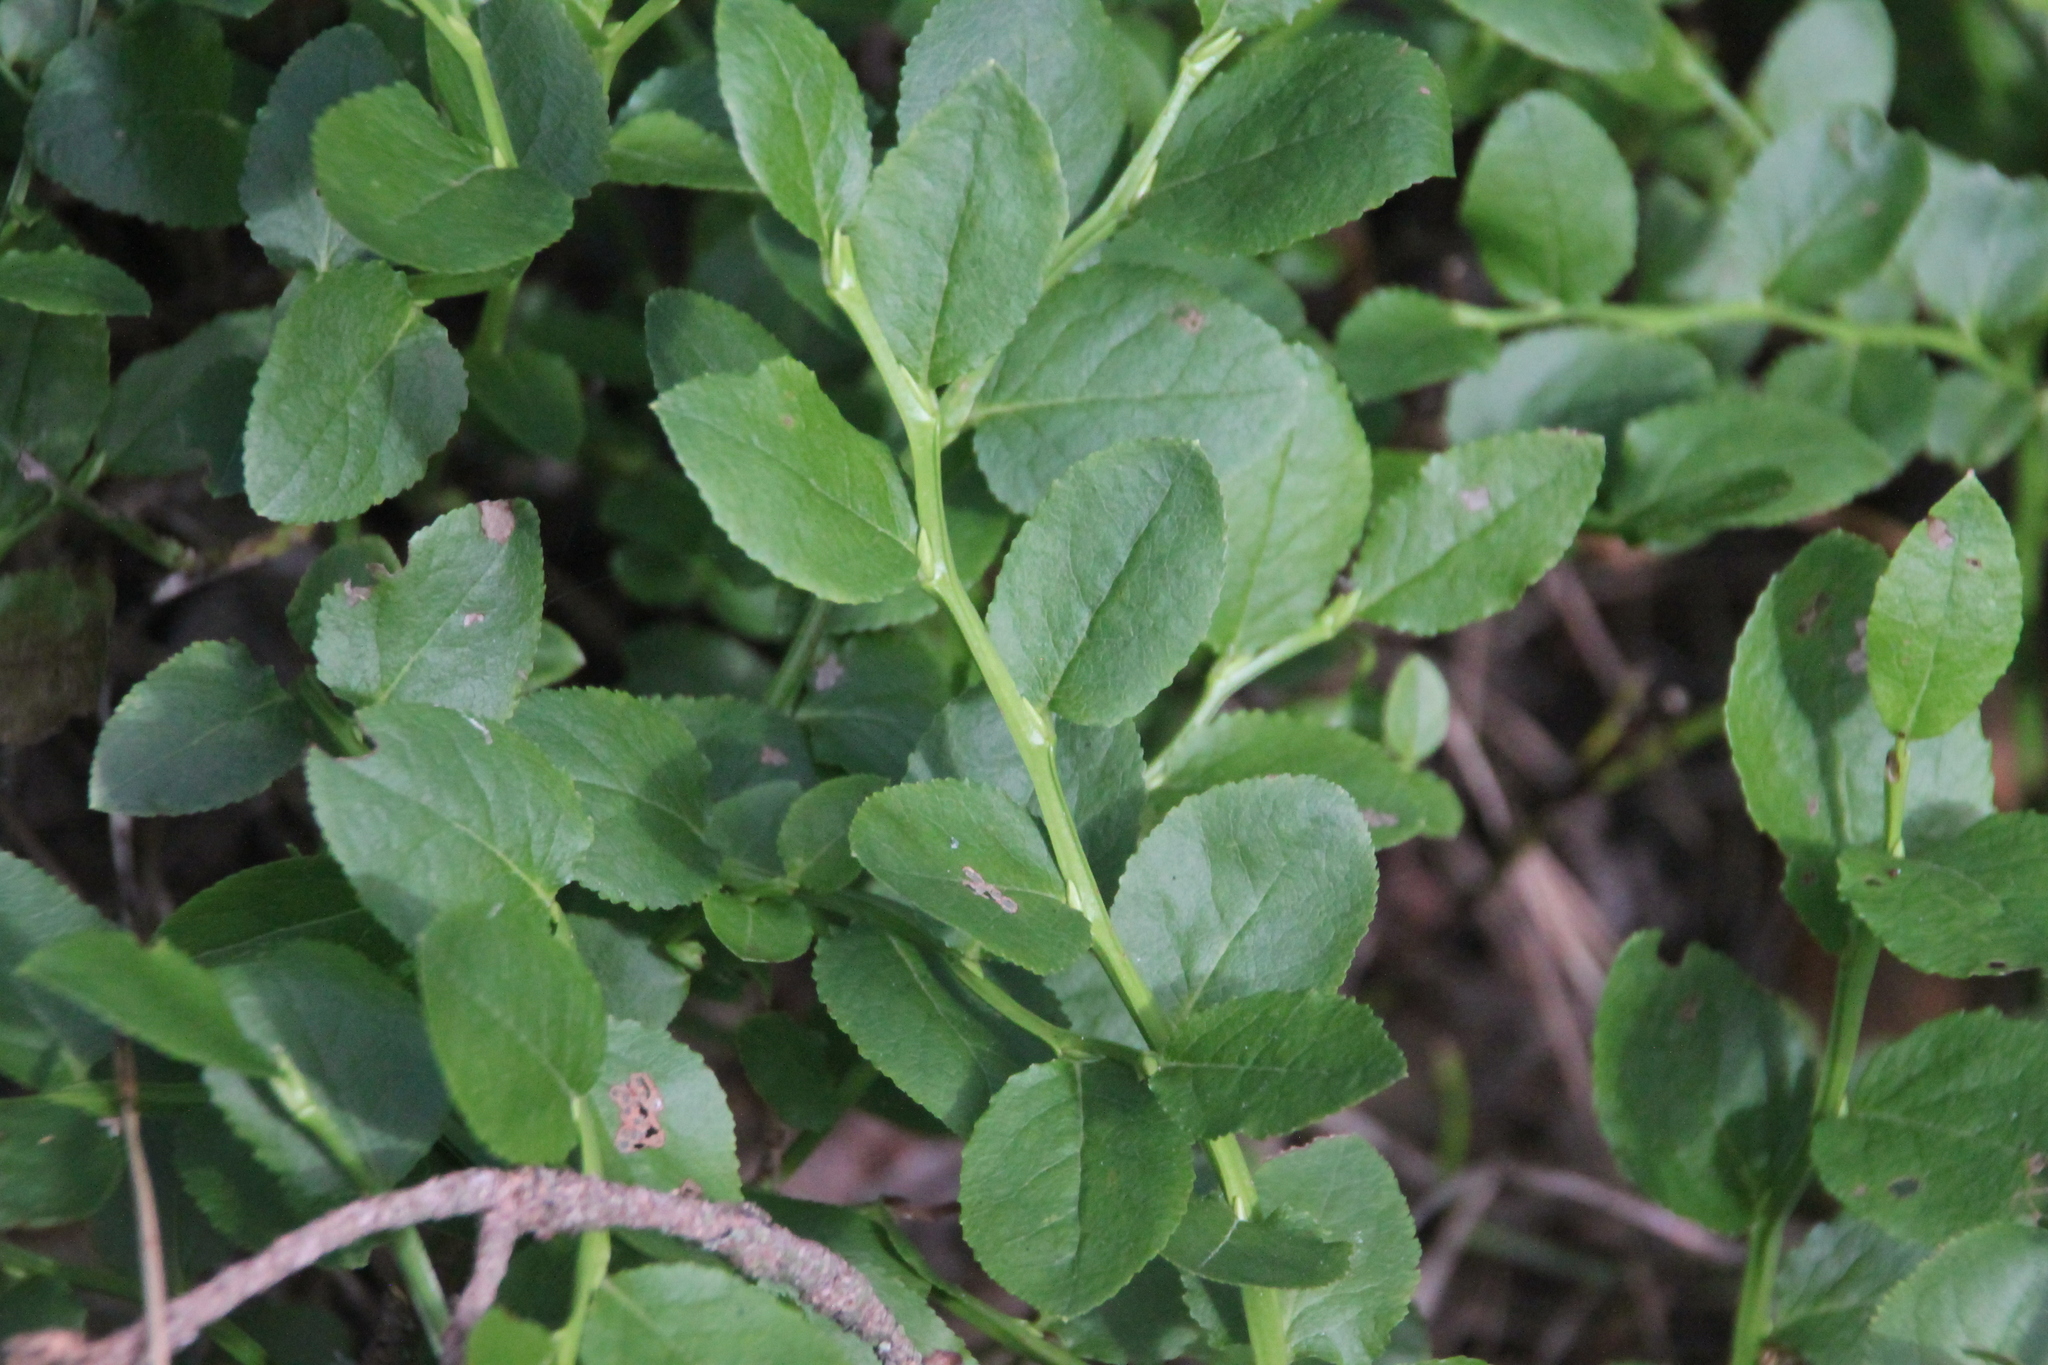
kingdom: Plantae
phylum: Tracheophyta
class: Magnoliopsida
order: Ericales
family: Ericaceae
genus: Vaccinium
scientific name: Vaccinium myrtillus
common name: Bilberry
